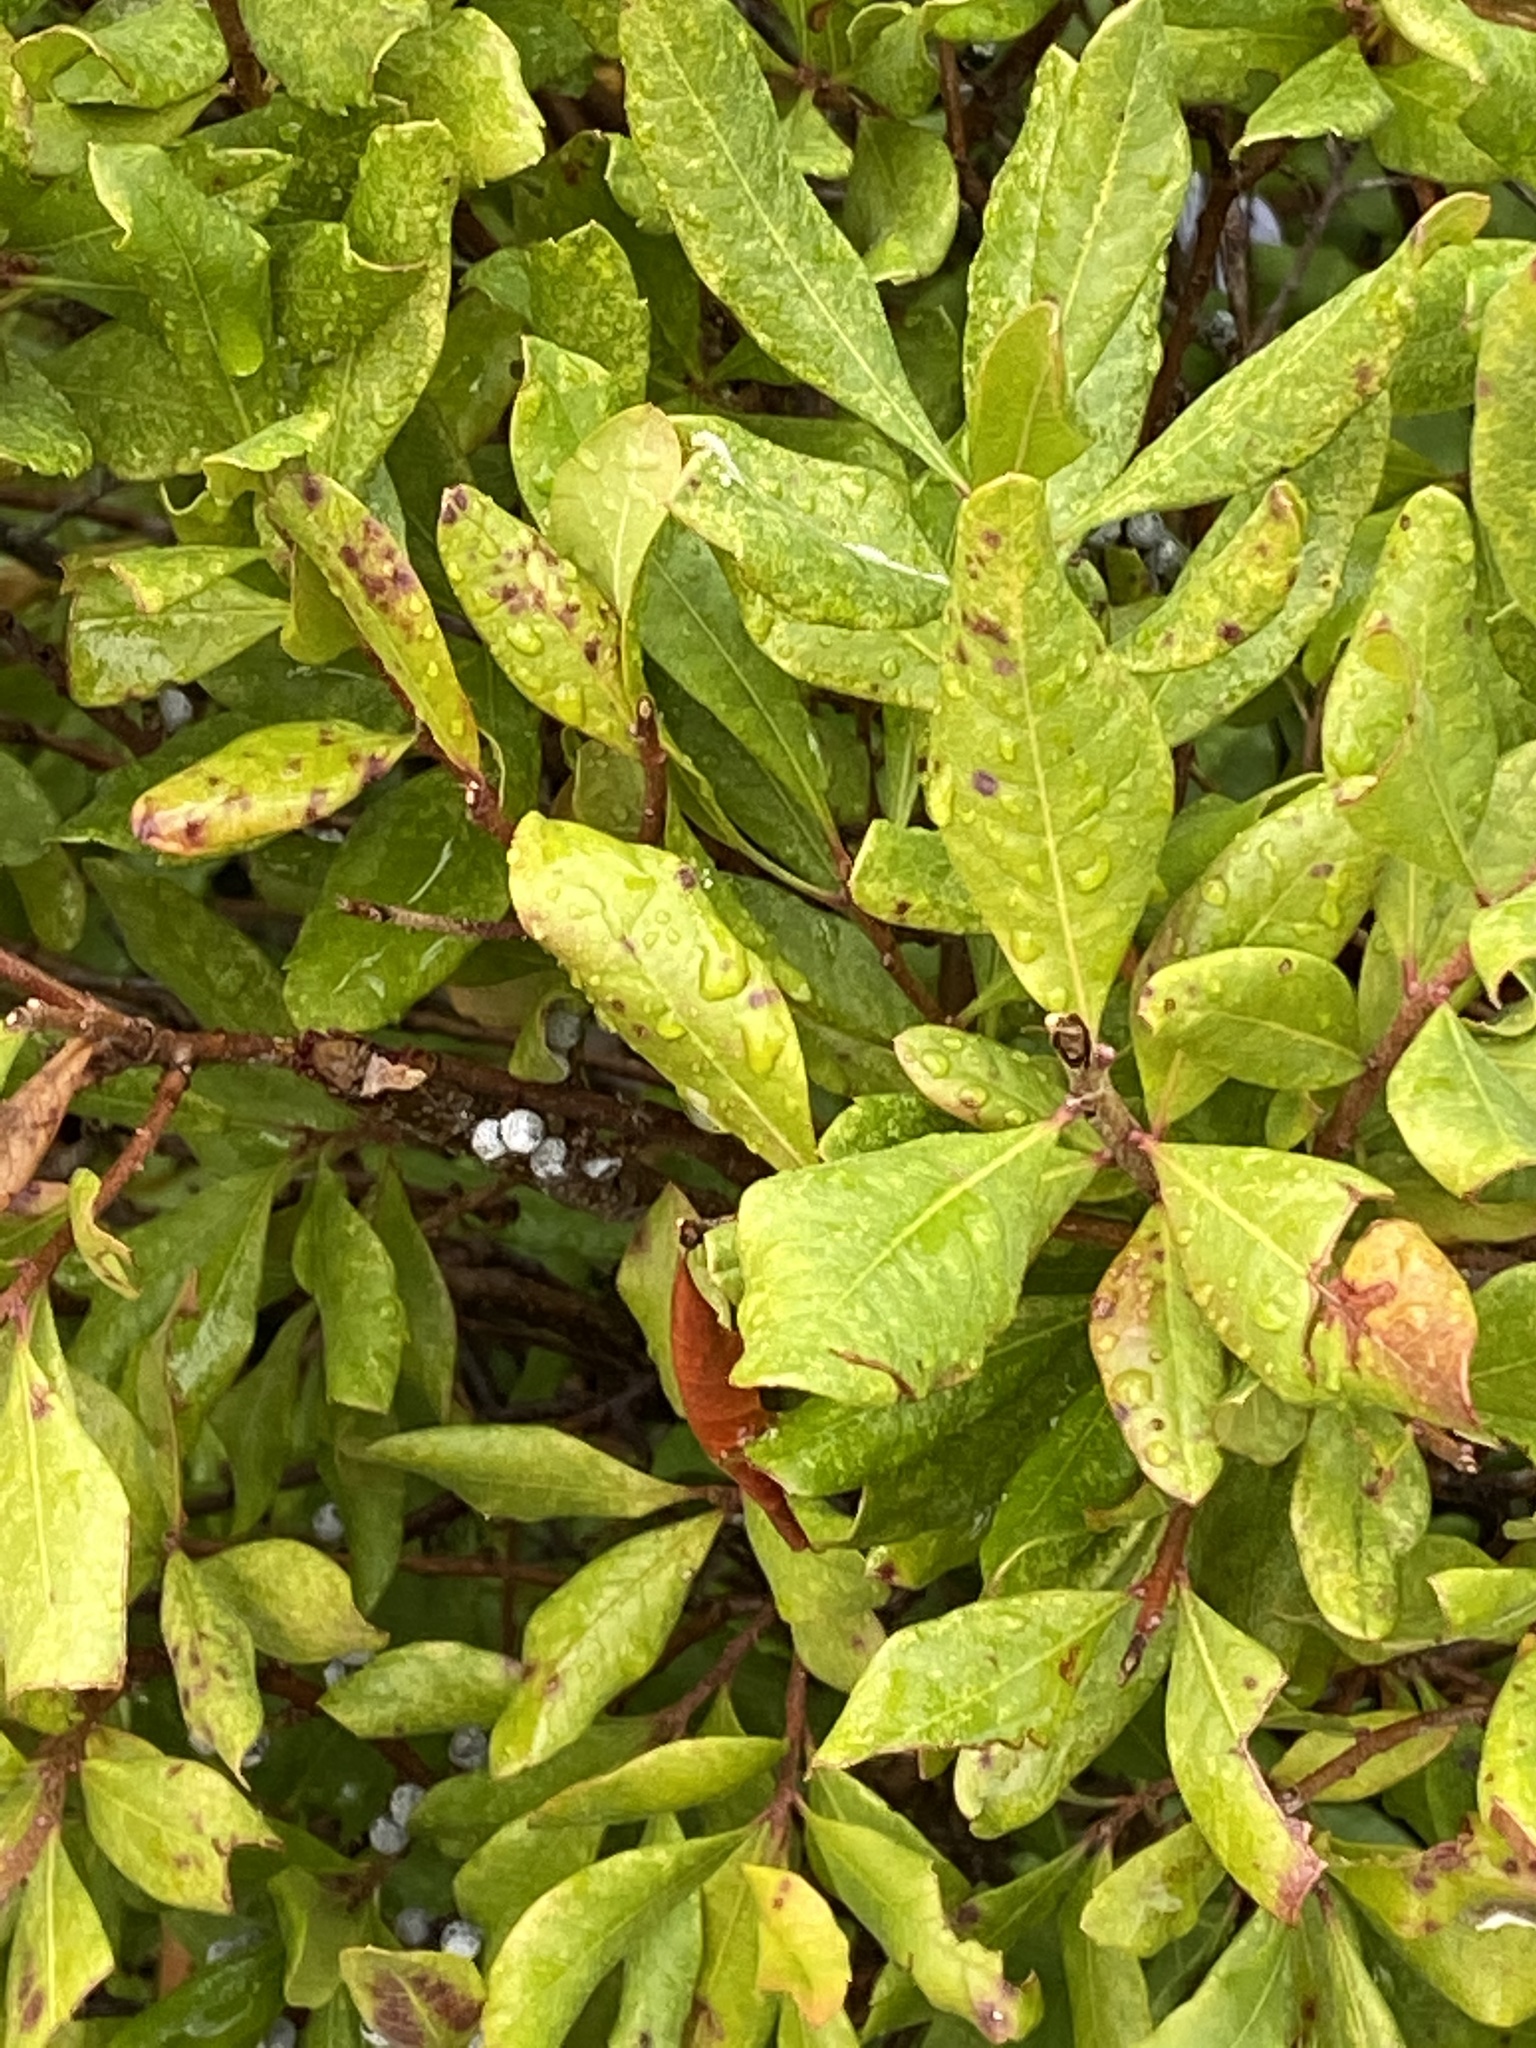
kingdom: Plantae
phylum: Tracheophyta
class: Magnoliopsida
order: Fagales
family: Myricaceae
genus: Morella
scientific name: Morella pensylvanica
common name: Northern bayberry
